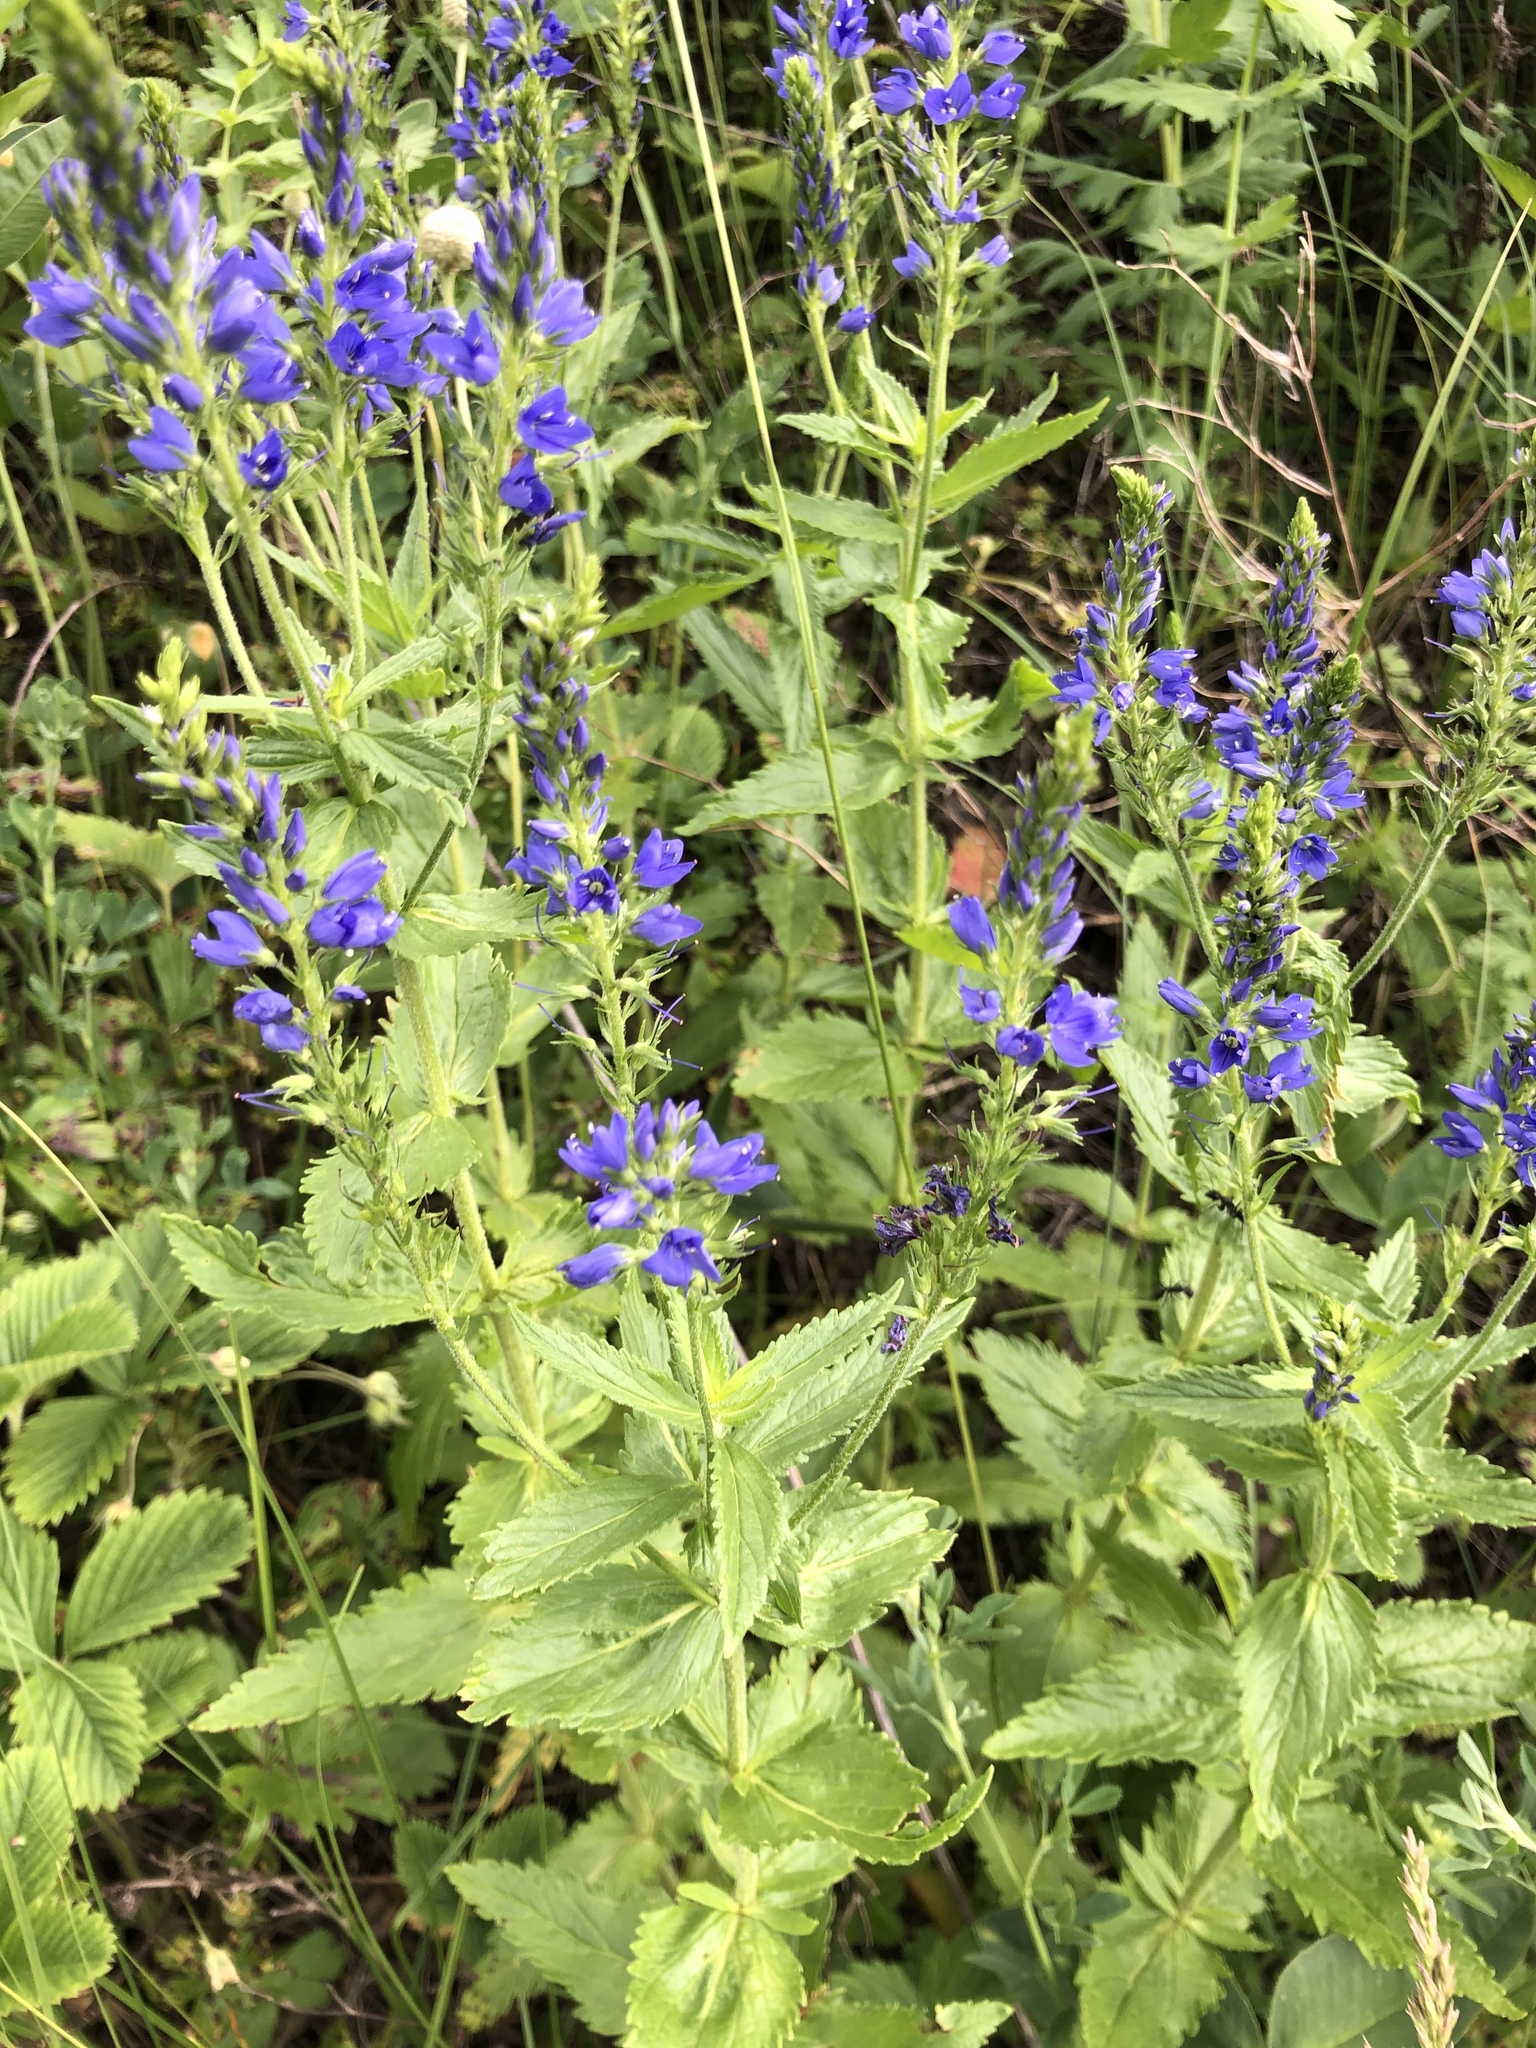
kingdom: Plantae
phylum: Tracheophyta
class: Magnoliopsida
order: Lamiales
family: Plantaginaceae
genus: Veronica
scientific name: Veronica teucrium
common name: Large speedwell
